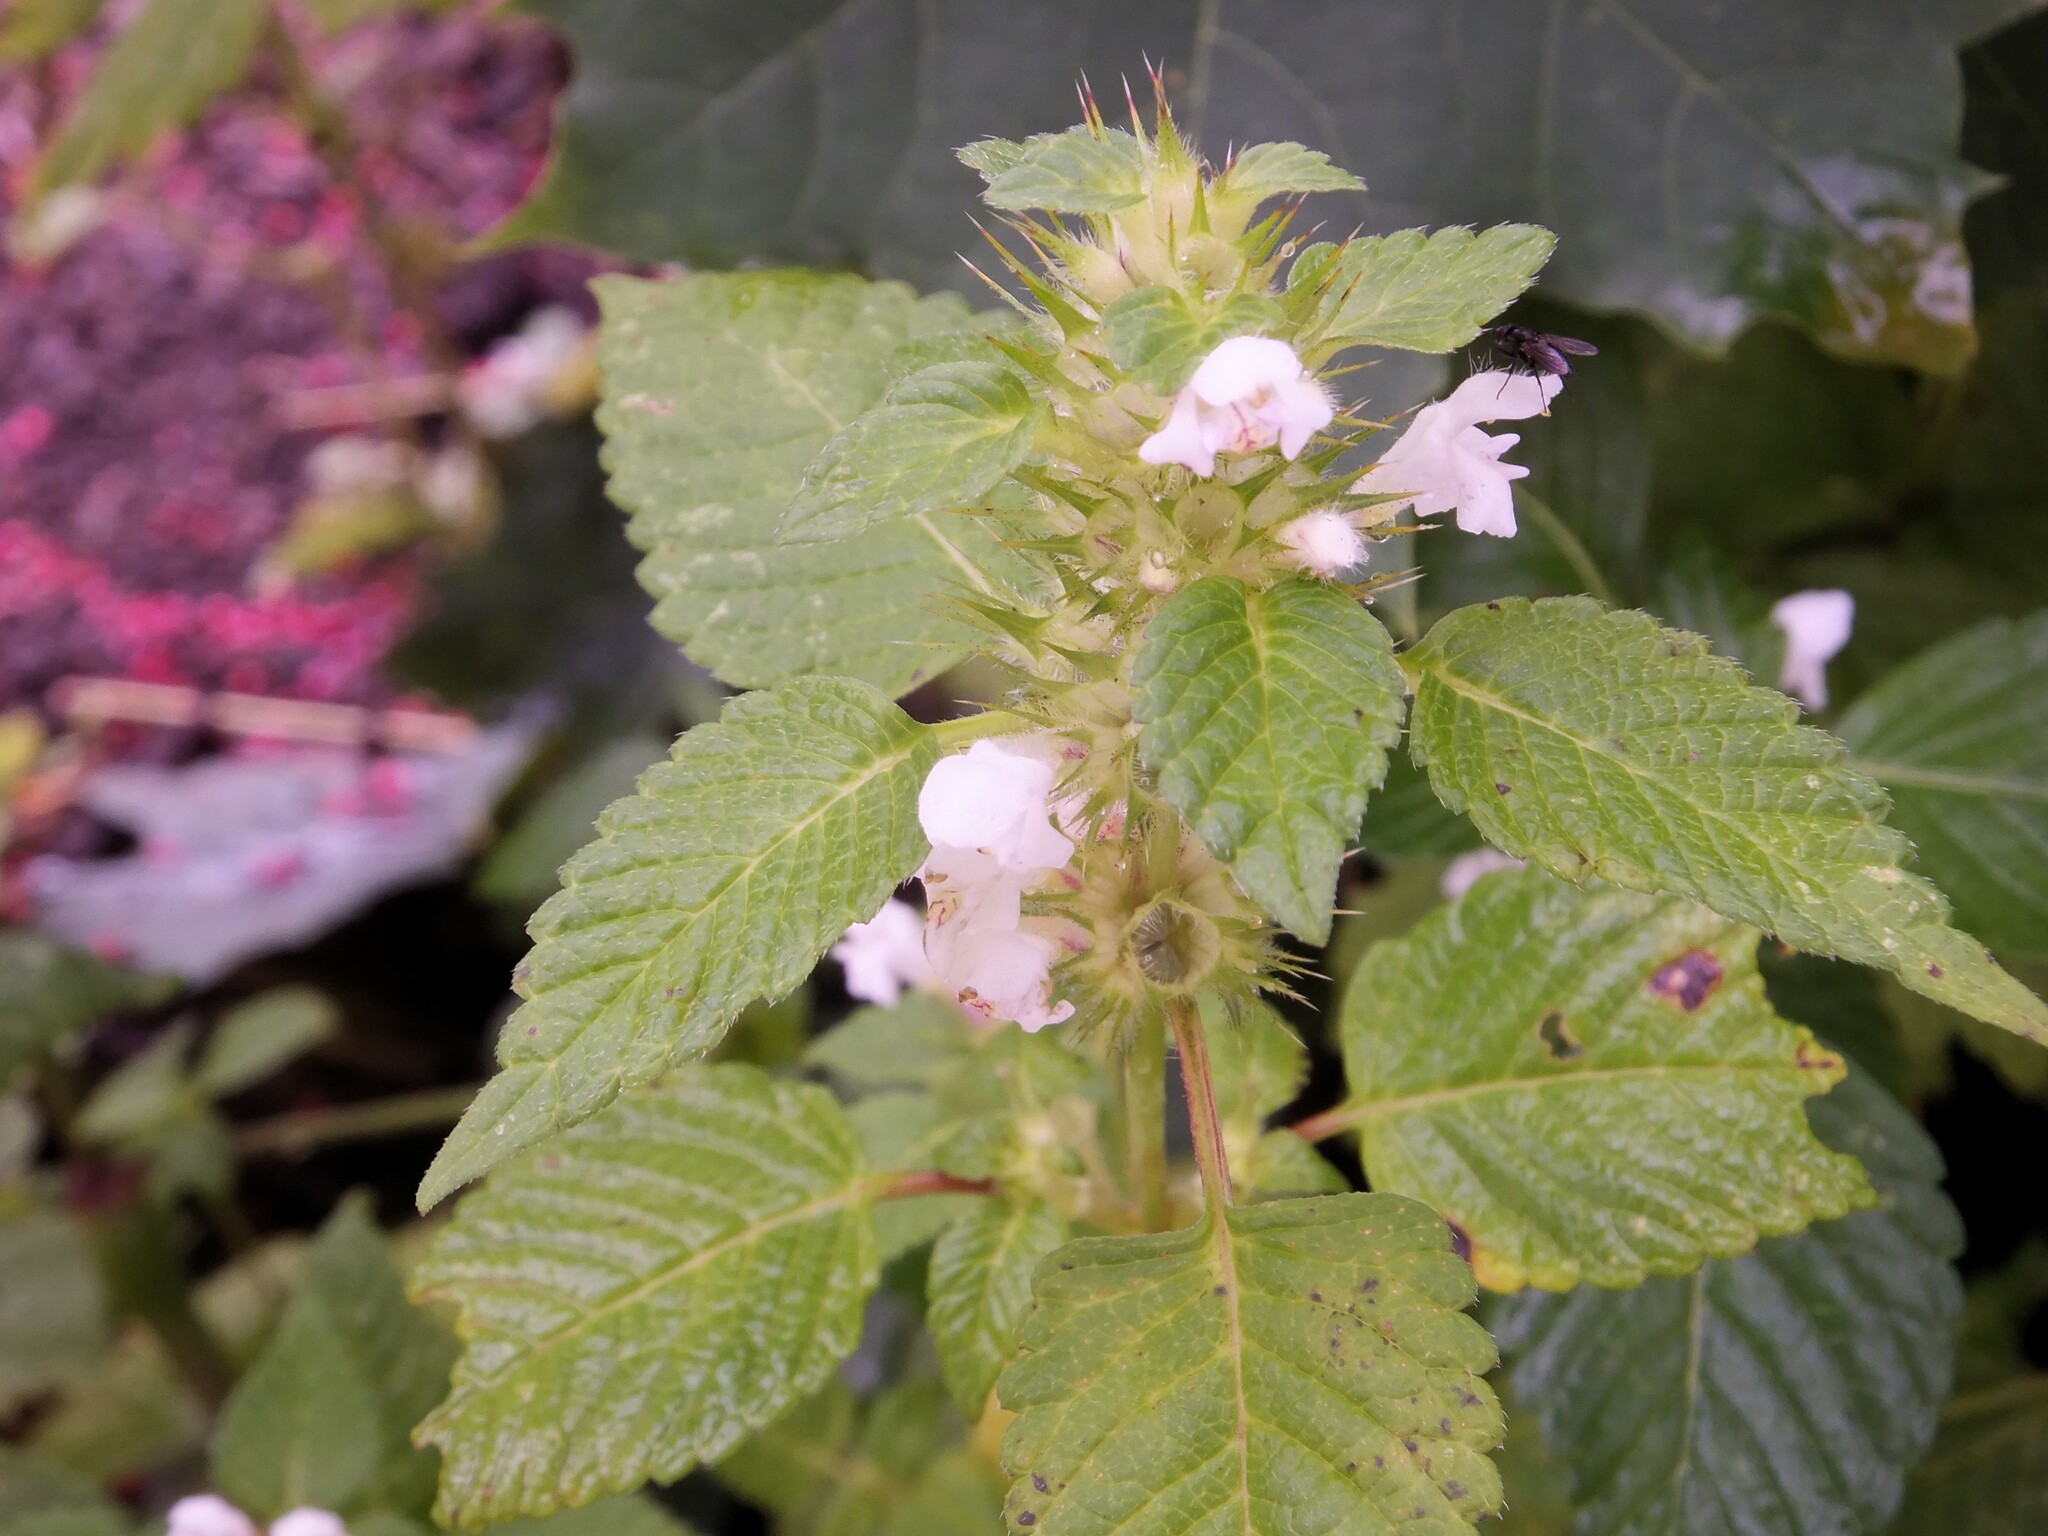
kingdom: Plantae
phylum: Tracheophyta
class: Magnoliopsida
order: Lamiales
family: Lamiaceae
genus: Galeopsis
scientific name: Galeopsis tetrahit
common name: Common hemp-nettle
